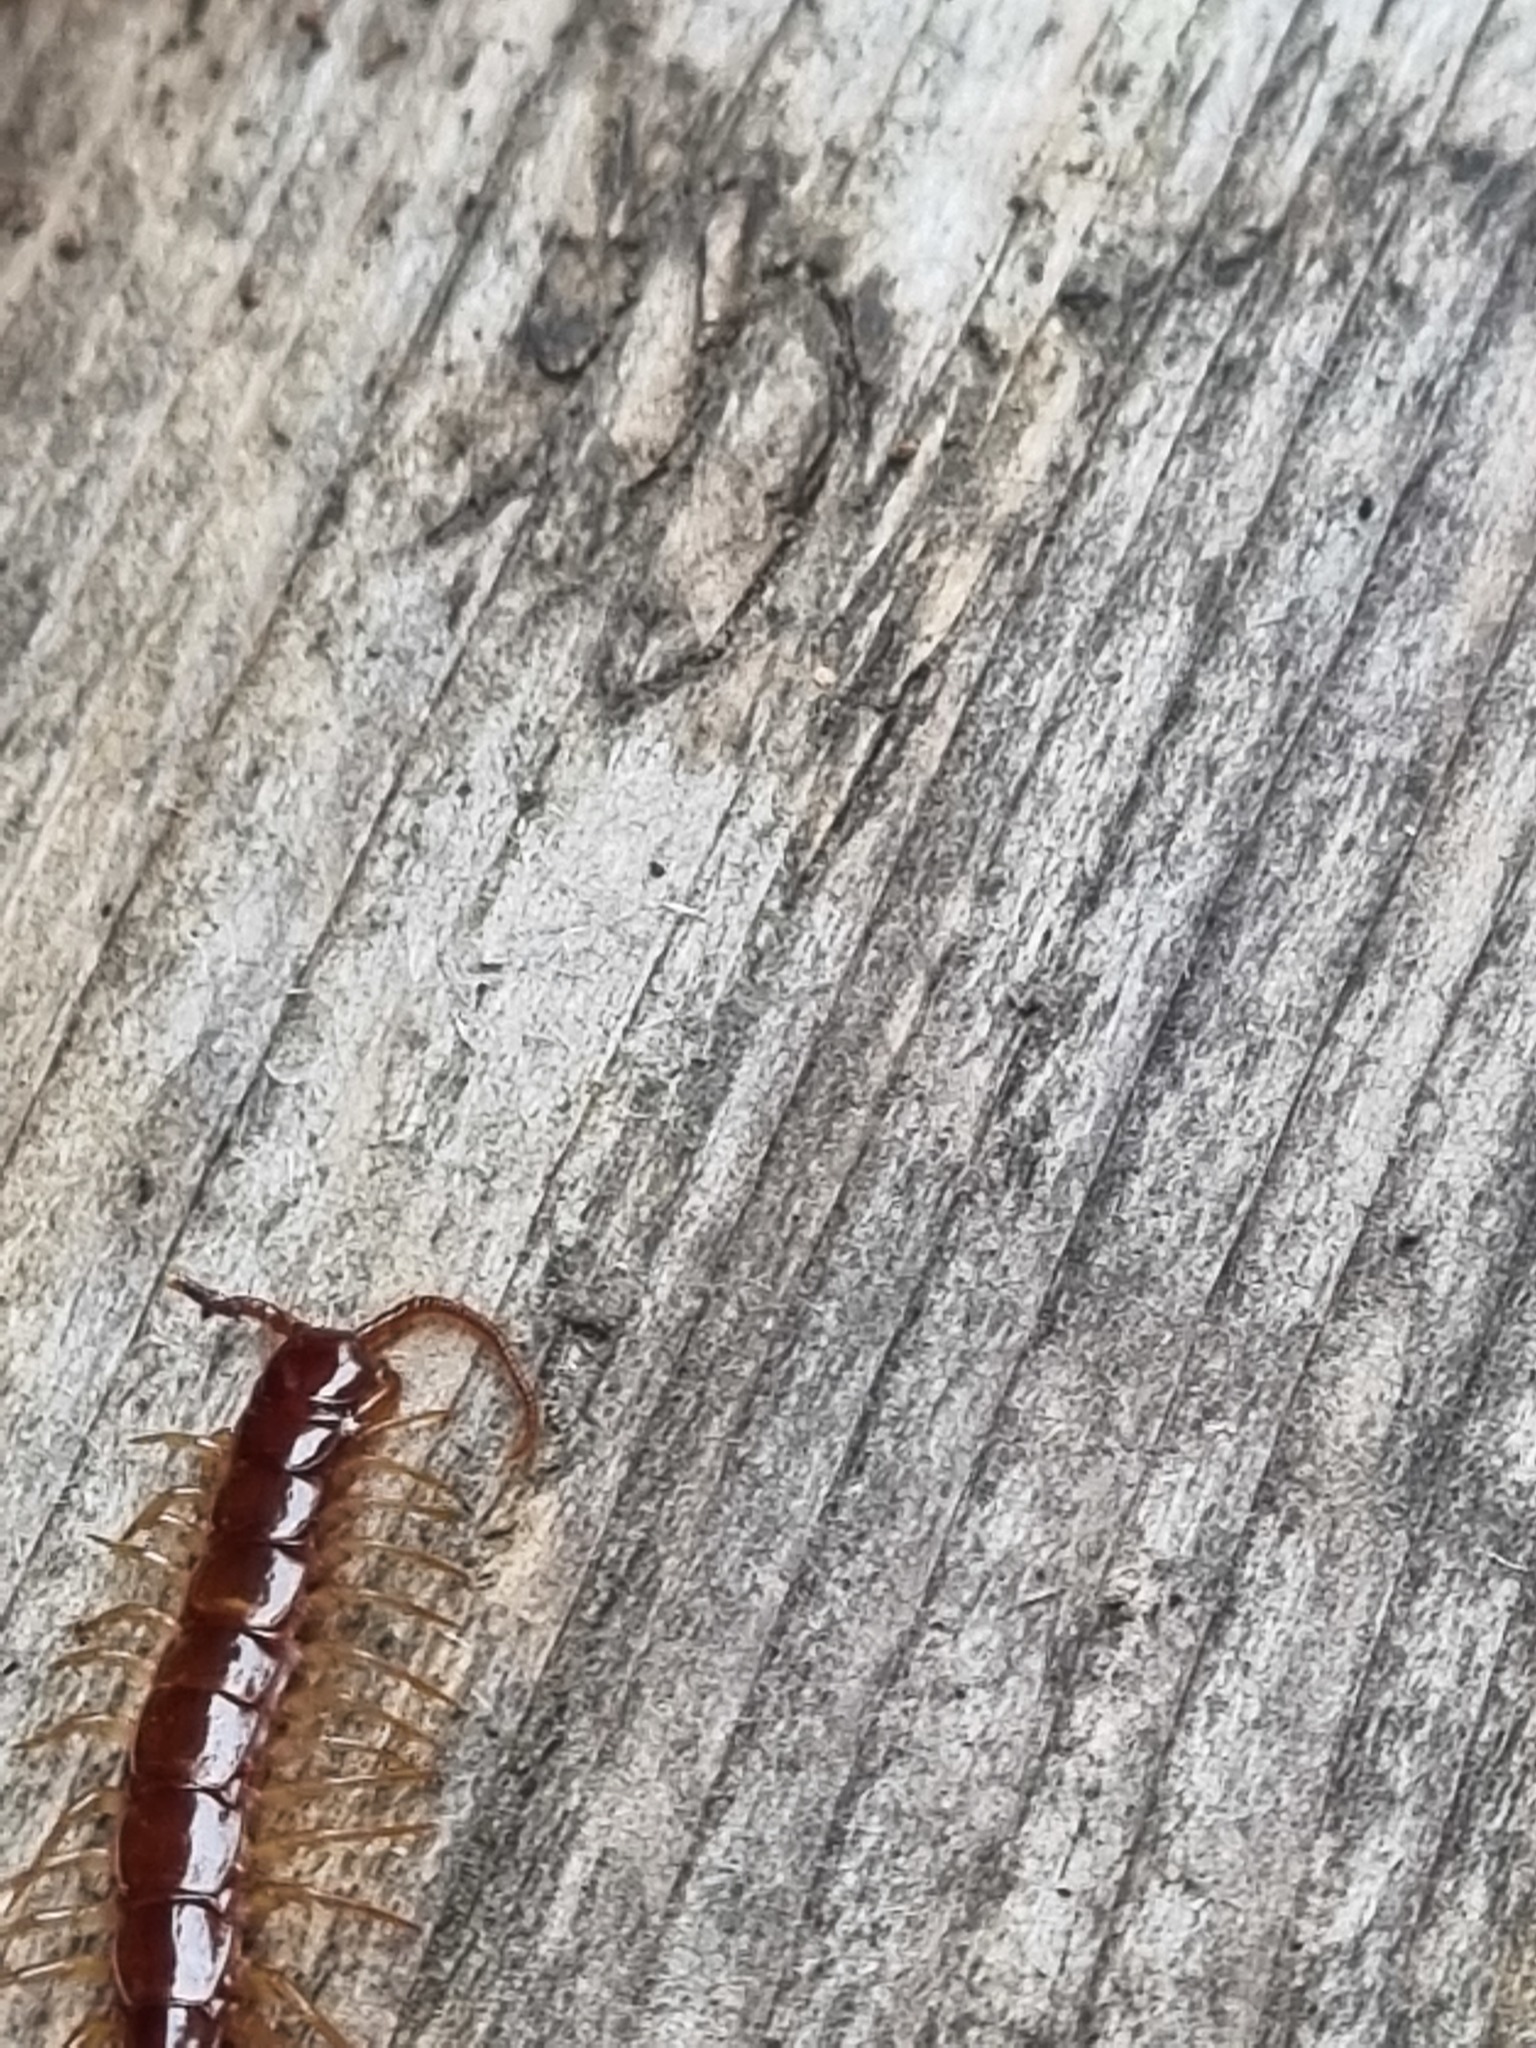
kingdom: Animalia
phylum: Arthropoda
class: Chilopoda
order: Lithobiomorpha
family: Lithobiidae
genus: Lithobius
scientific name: Lithobius forficatus
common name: Centipede
